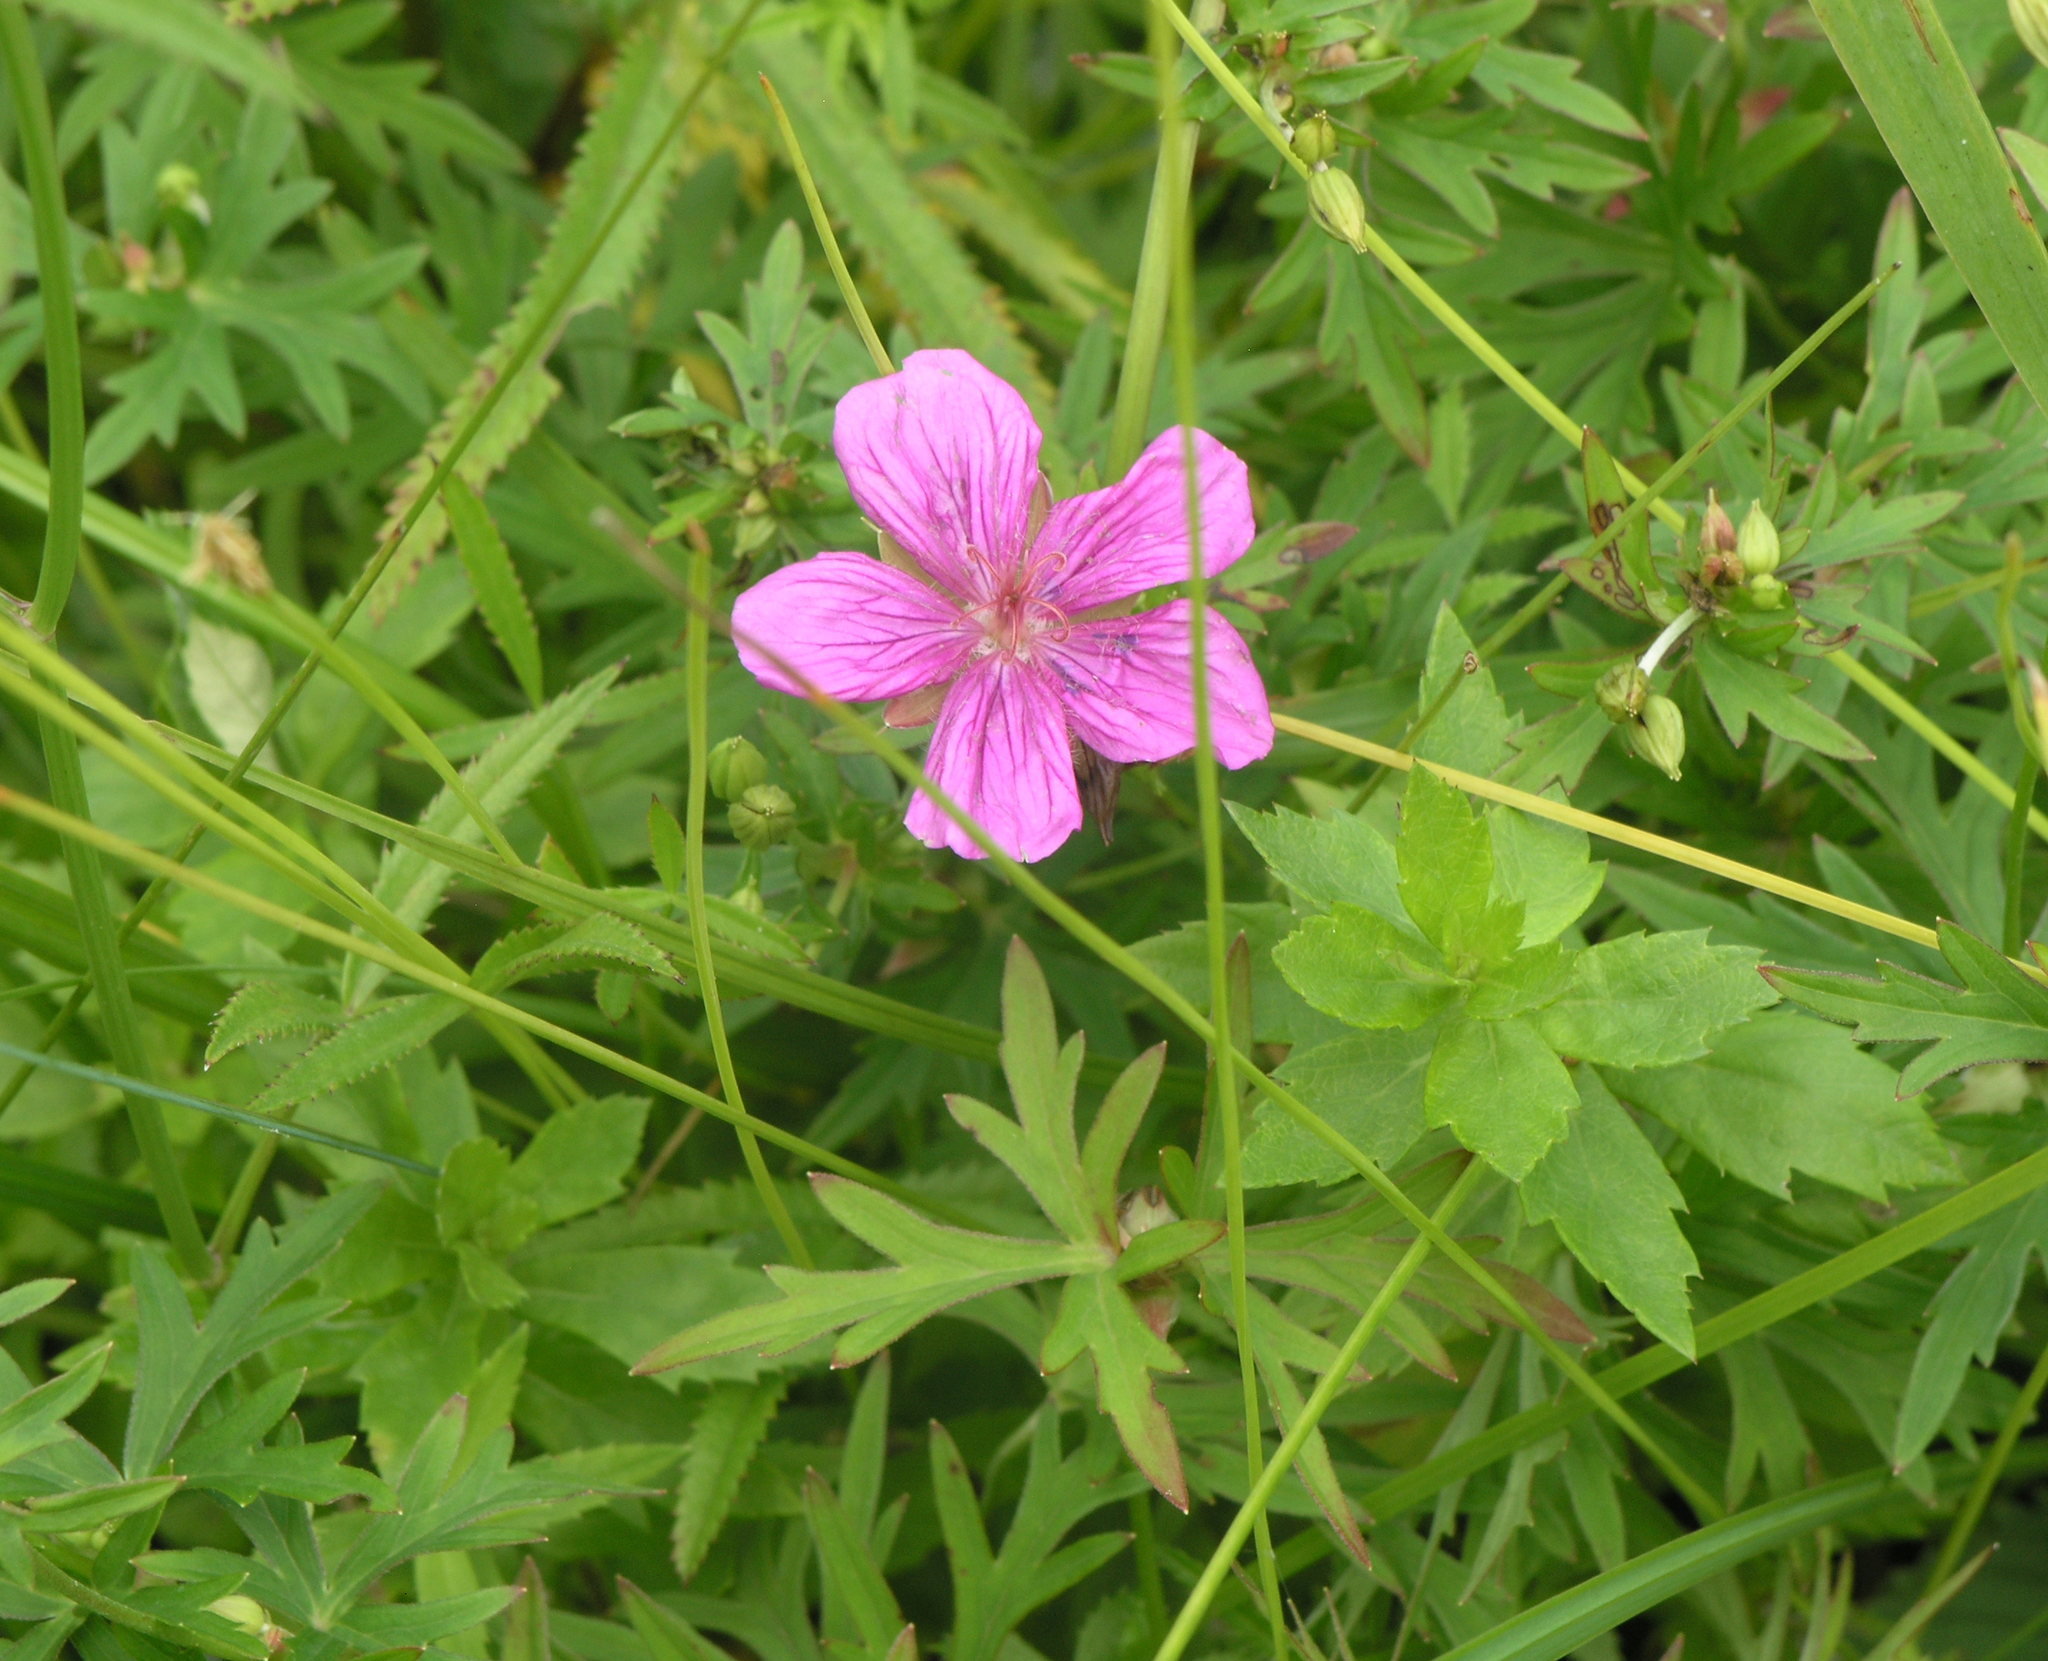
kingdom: Plantae
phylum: Tracheophyta
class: Magnoliopsida
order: Geraniales
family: Geraniaceae
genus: Geranium
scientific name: Geranium soboliferum
